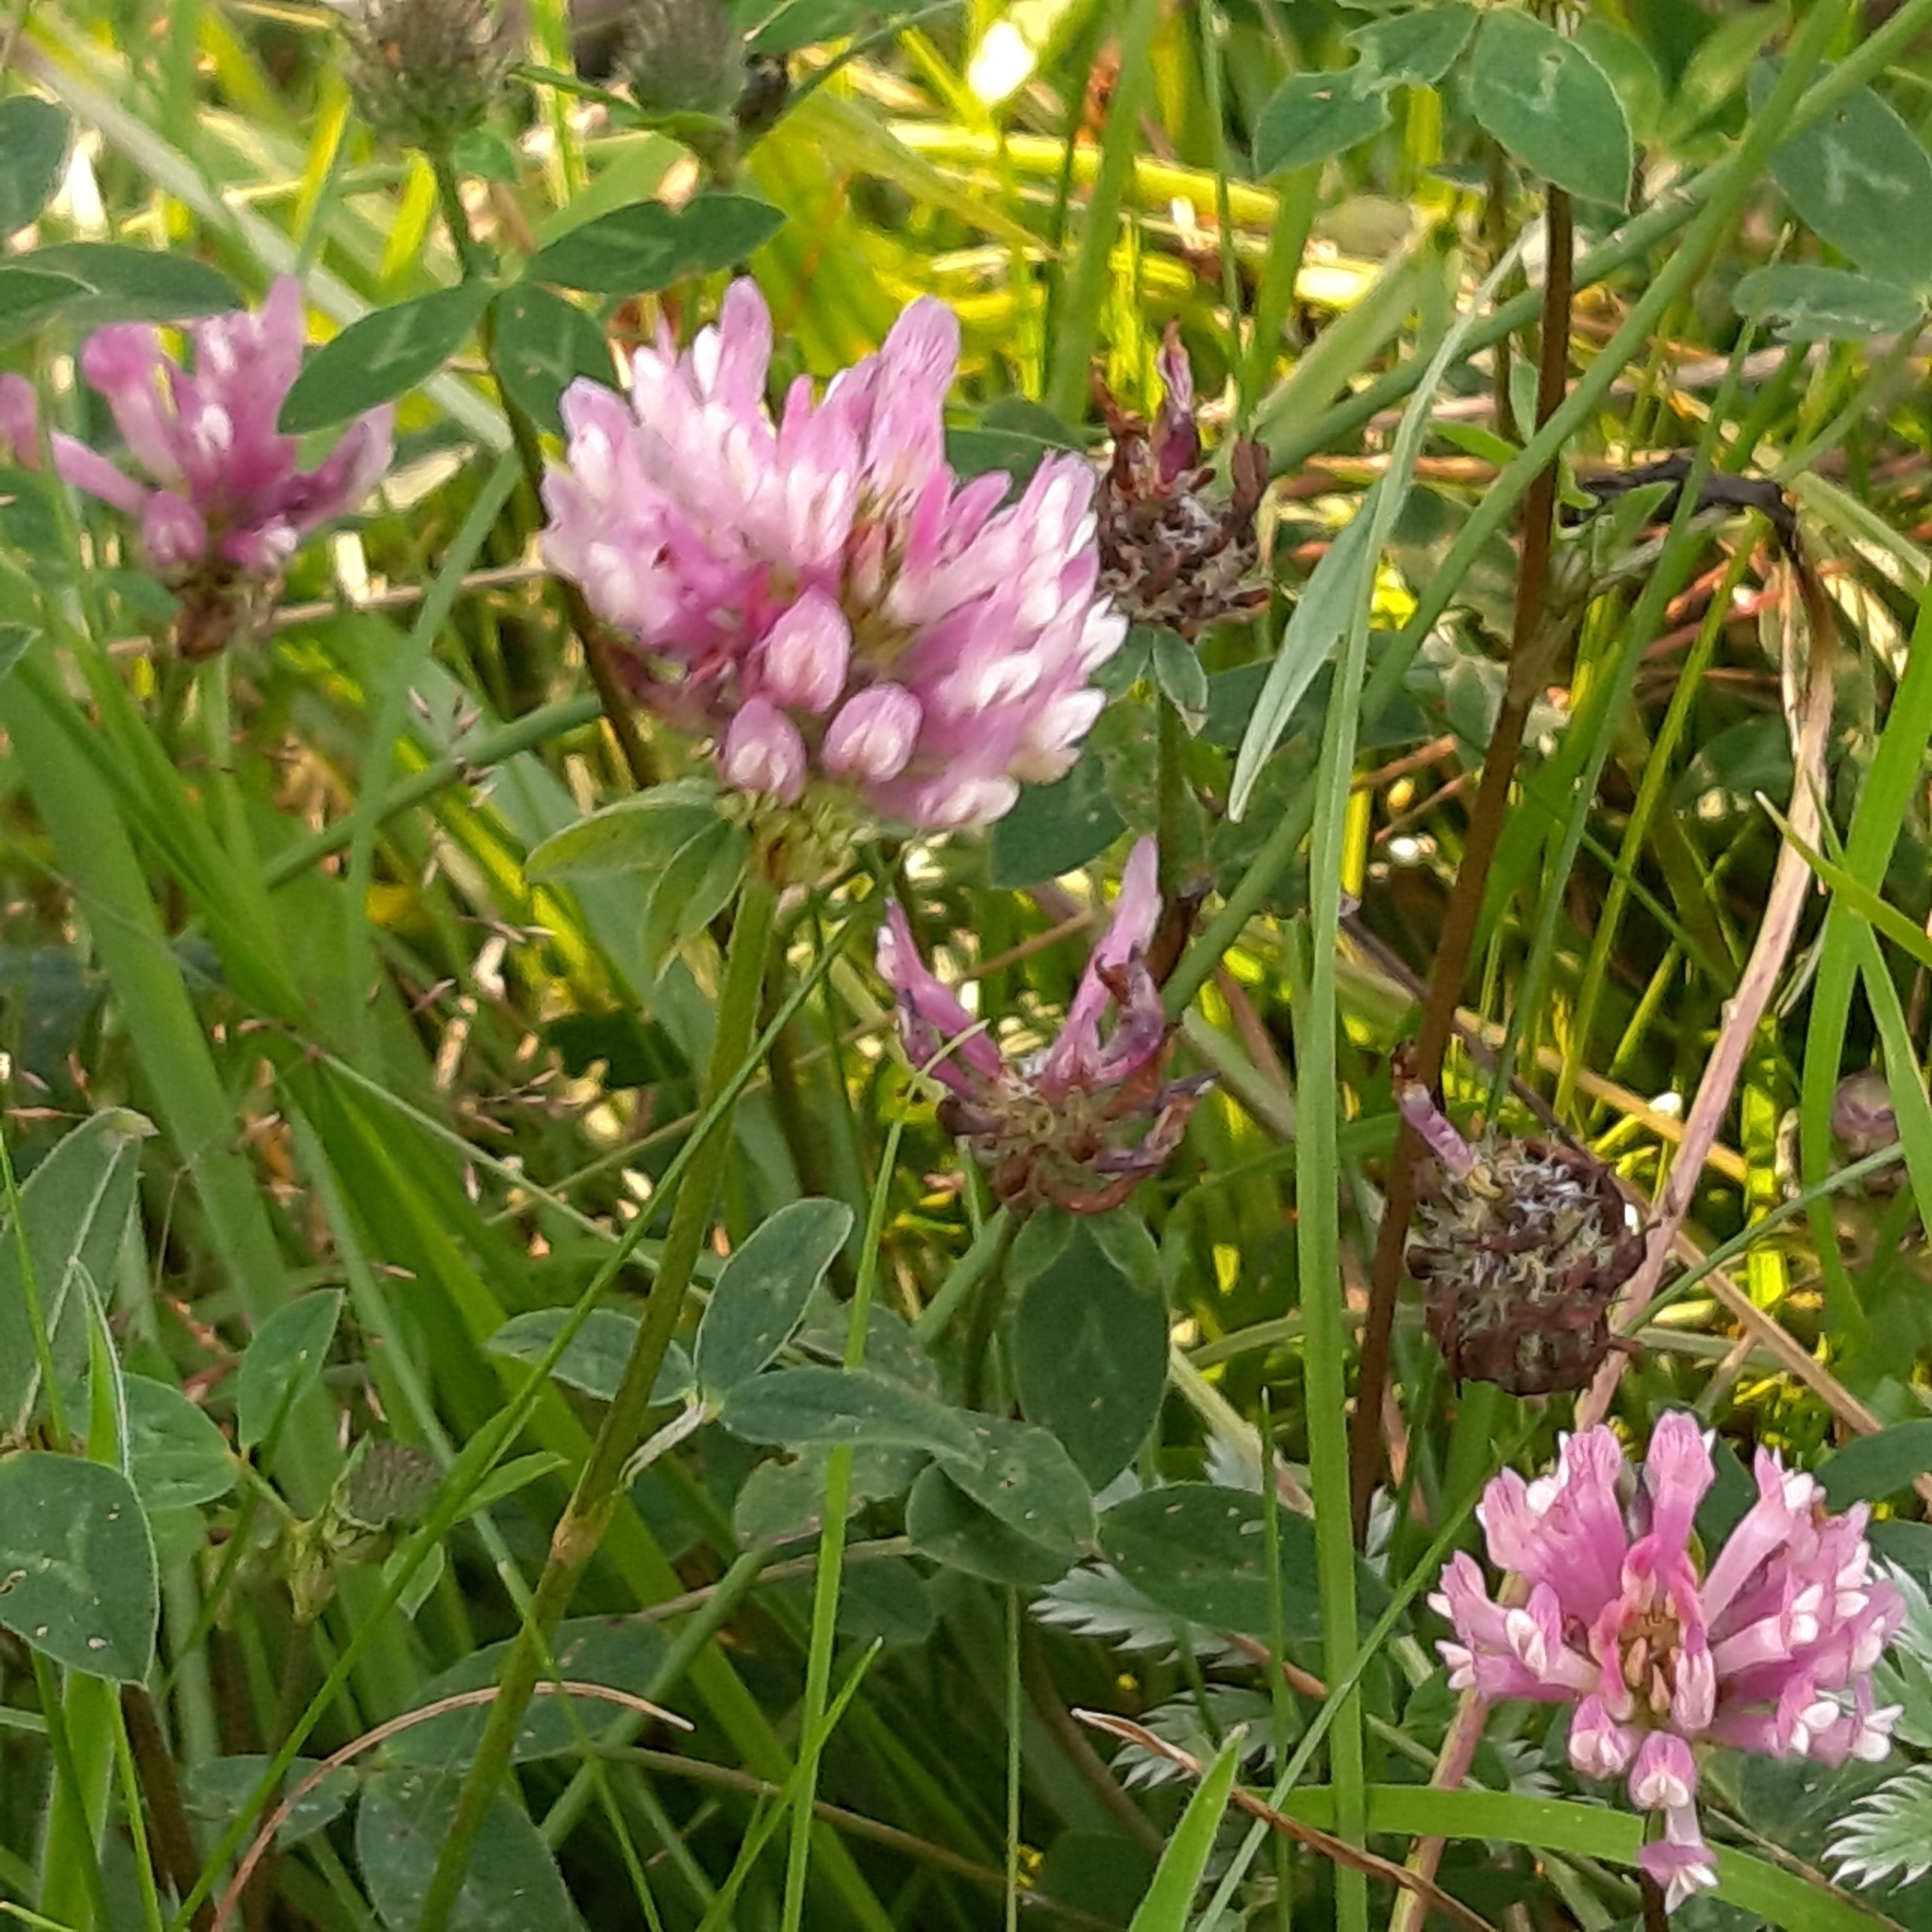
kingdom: Plantae
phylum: Tracheophyta
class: Magnoliopsida
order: Fabales
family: Fabaceae
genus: Trifolium
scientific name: Trifolium pratense
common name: Red clover
